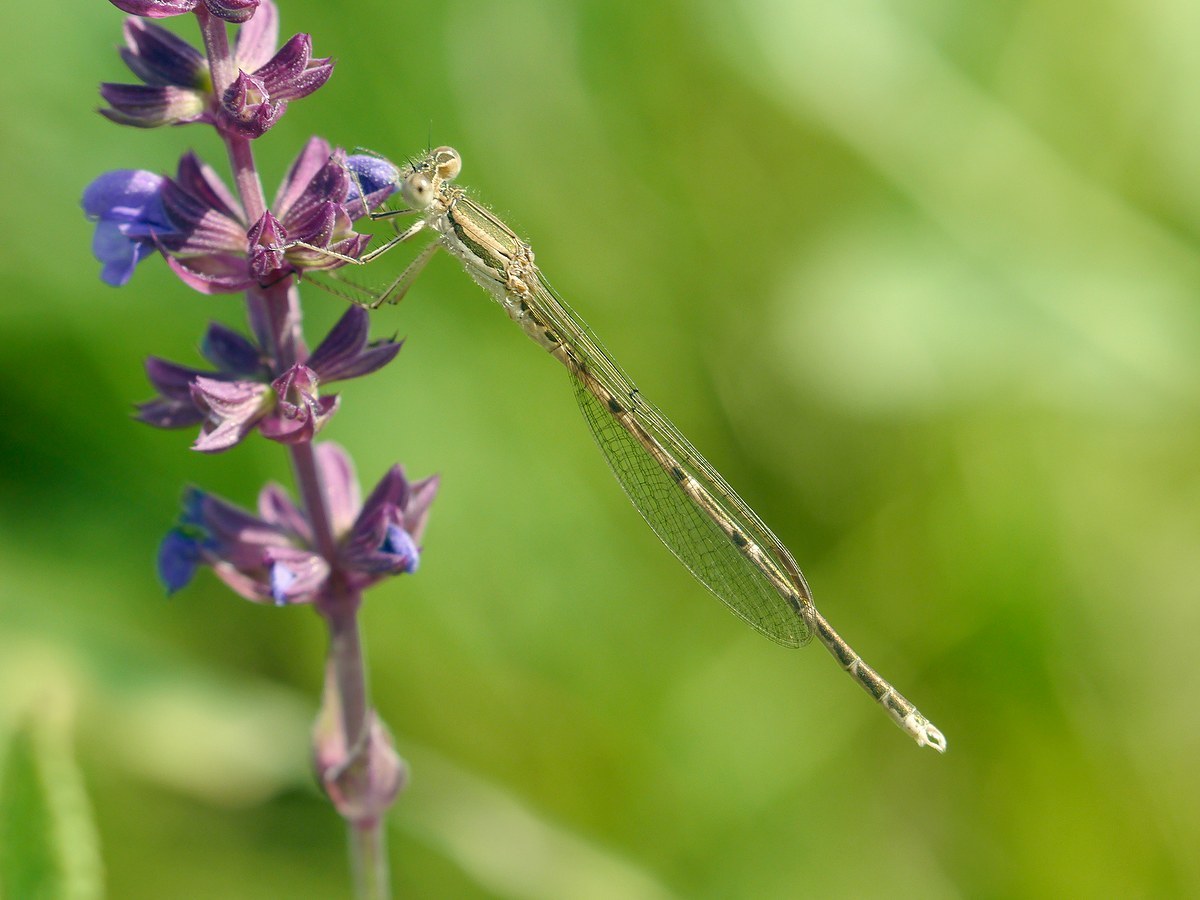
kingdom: Animalia
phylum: Arthropoda
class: Insecta
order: Odonata
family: Lestidae
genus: Sympecma
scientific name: Sympecma fusca
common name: Common winter damsel
